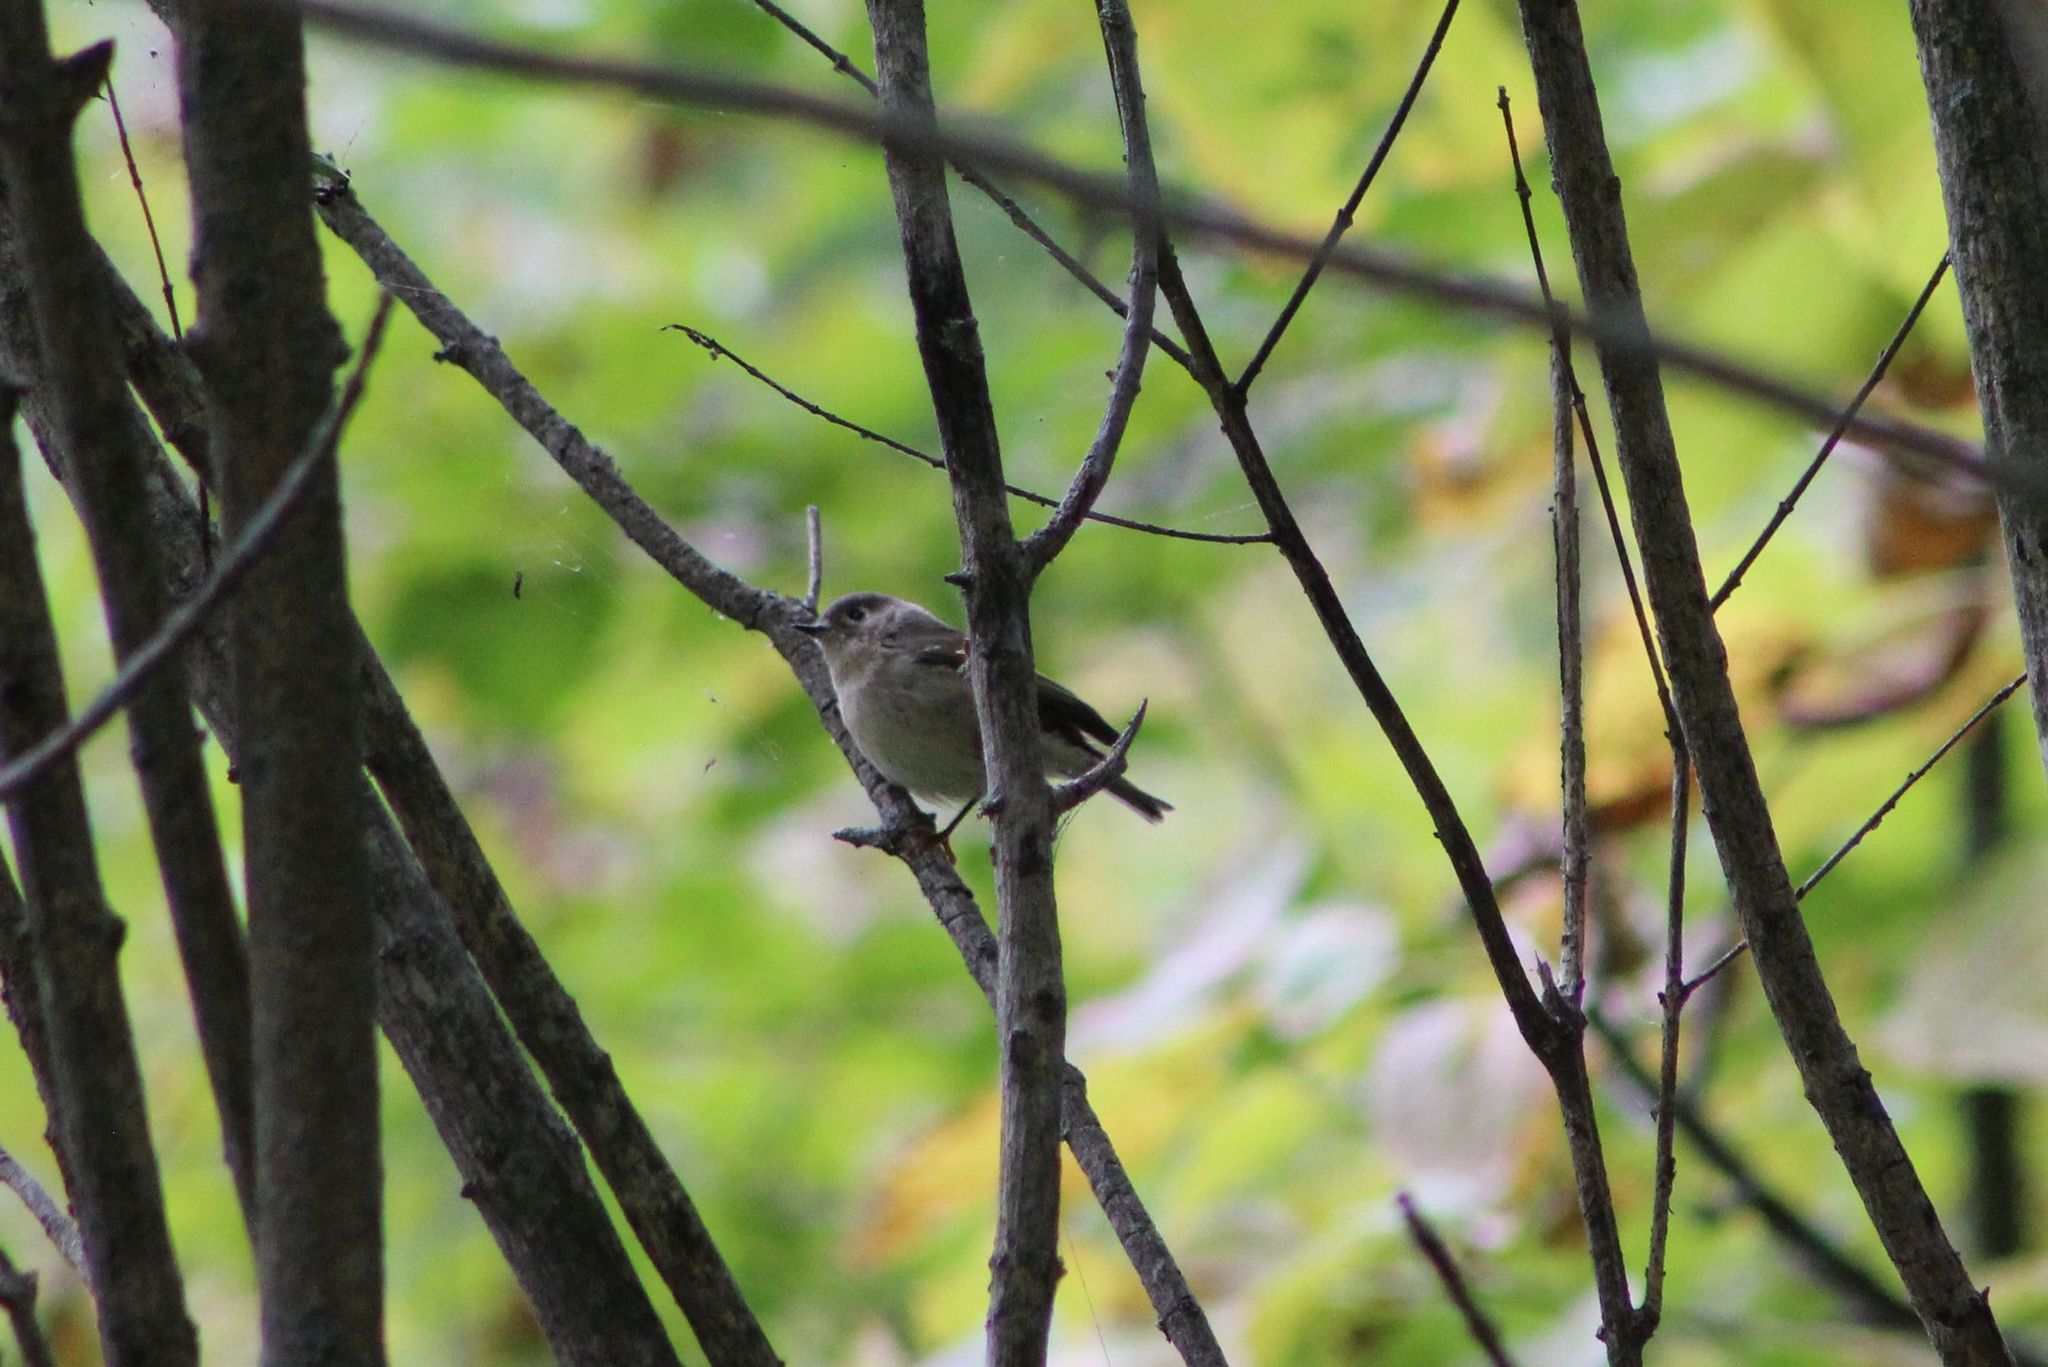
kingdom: Animalia
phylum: Chordata
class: Aves
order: Passeriformes
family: Regulidae
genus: Regulus
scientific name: Regulus calendula
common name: Ruby-crowned kinglet
